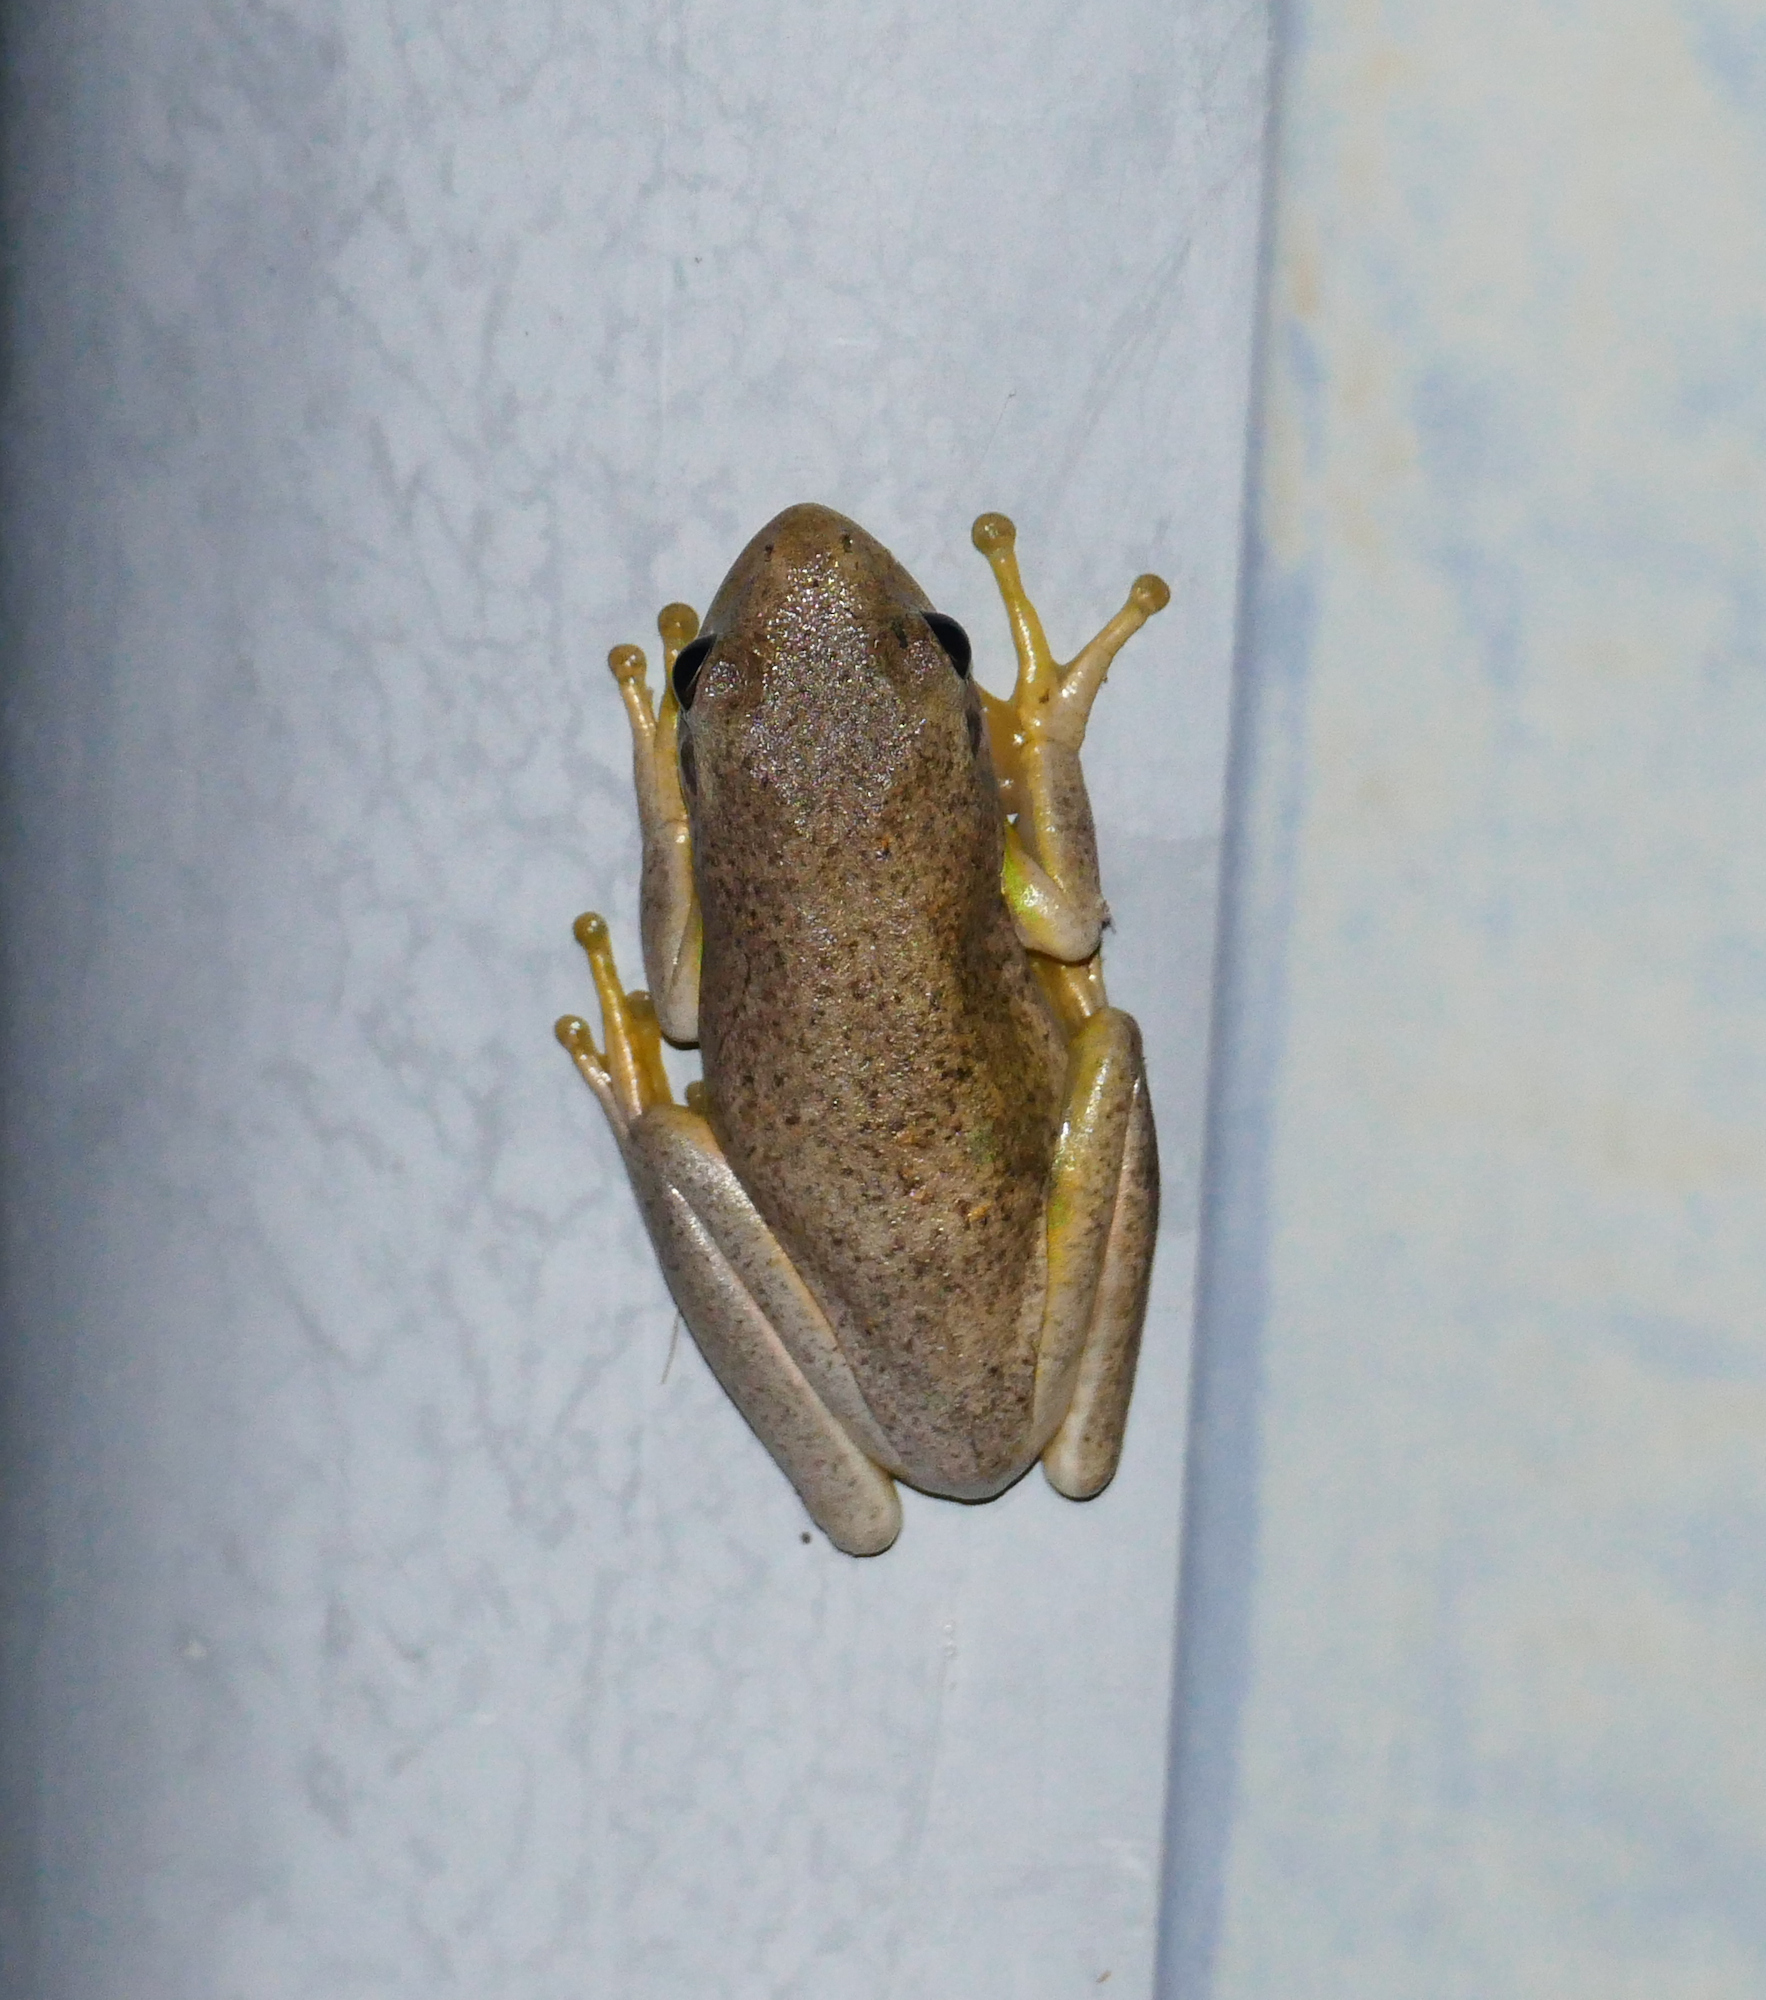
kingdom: Animalia
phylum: Chordata
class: Amphibia
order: Anura
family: Hylidae
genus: Dryophytes
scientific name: Dryophytes cinereus
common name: Green treefrog
